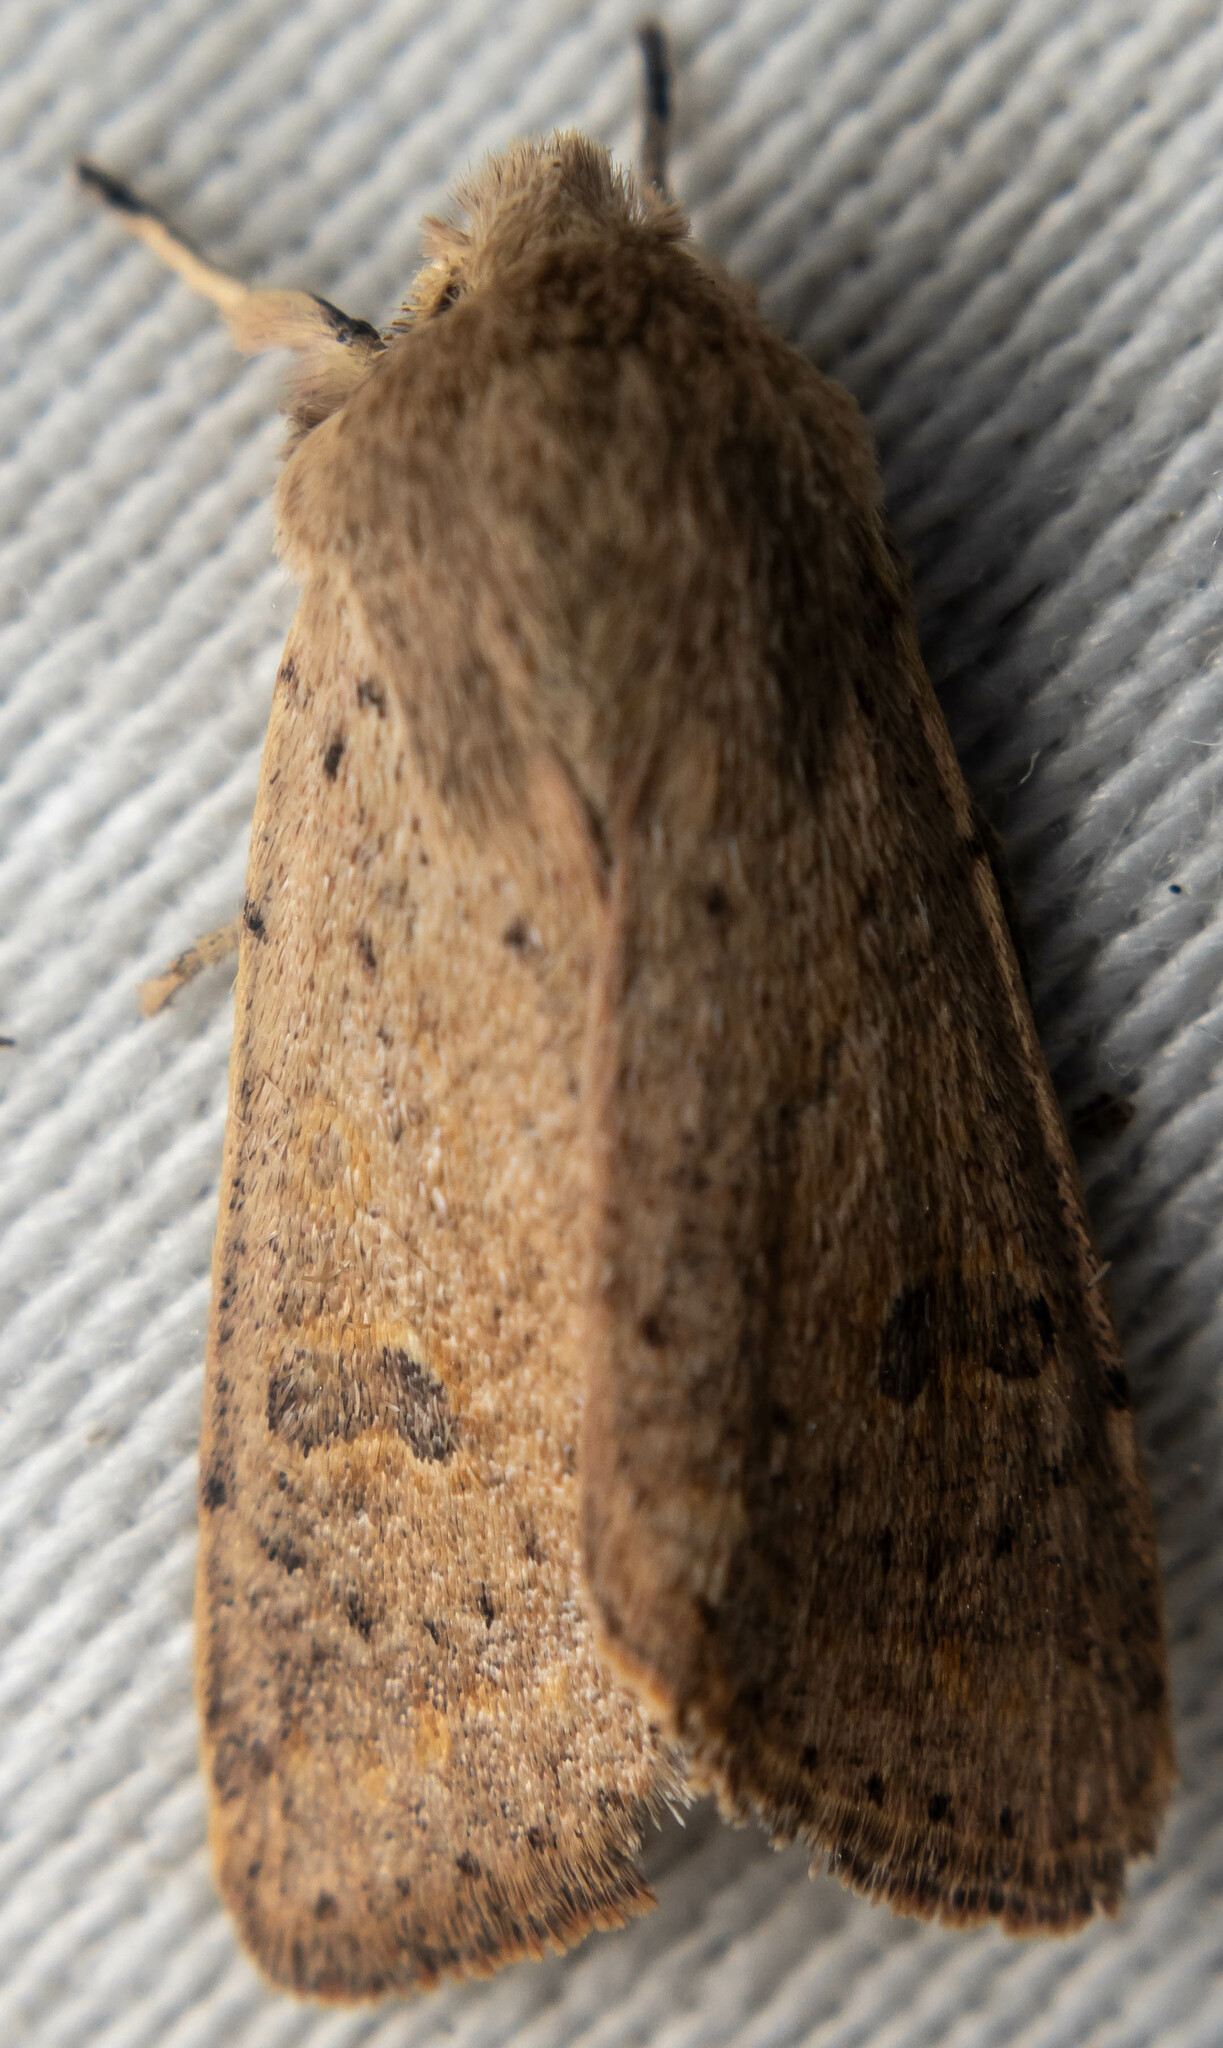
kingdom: Animalia
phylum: Arthropoda
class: Insecta
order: Lepidoptera
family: Noctuidae
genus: Orthosia
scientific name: Orthosia cruda
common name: Small quaker
